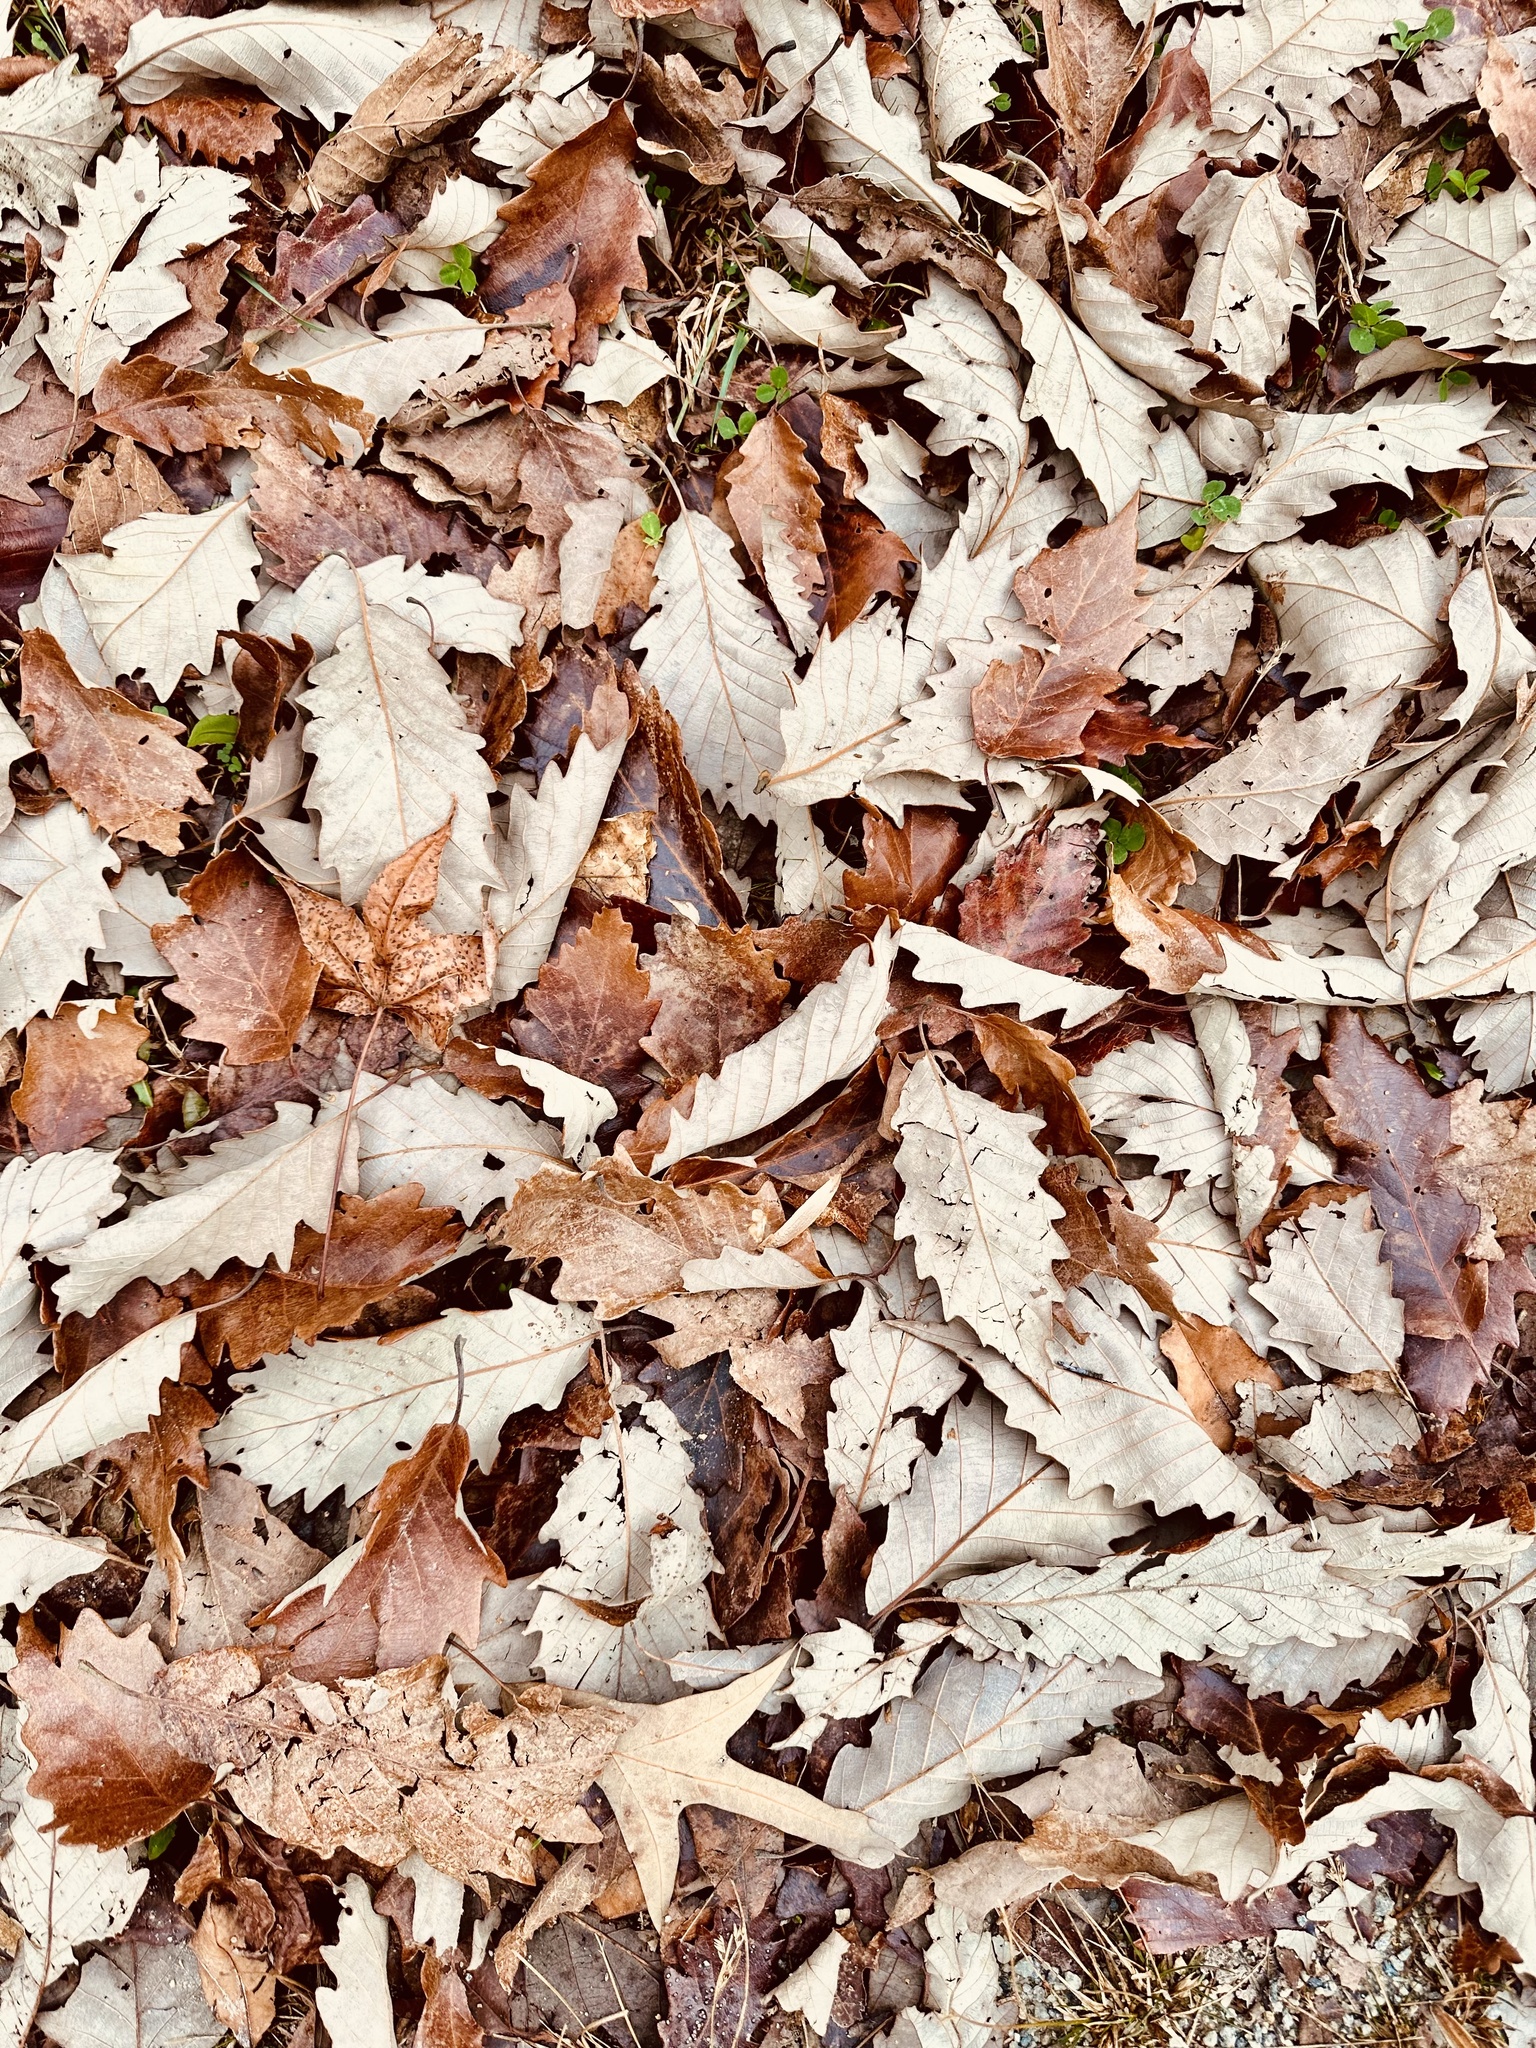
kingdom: Plantae
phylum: Tracheophyta
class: Magnoliopsida
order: Fagales
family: Fagaceae
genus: Quercus
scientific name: Quercus montana
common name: Chestnut oak
